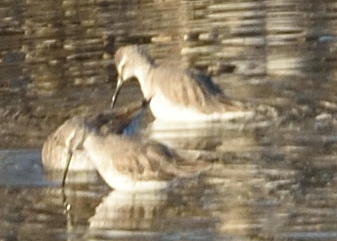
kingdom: Animalia
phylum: Chordata
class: Aves
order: Charadriiformes
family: Scolopacidae
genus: Calidris
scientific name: Calidris himantopus
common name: Stilt sandpiper
